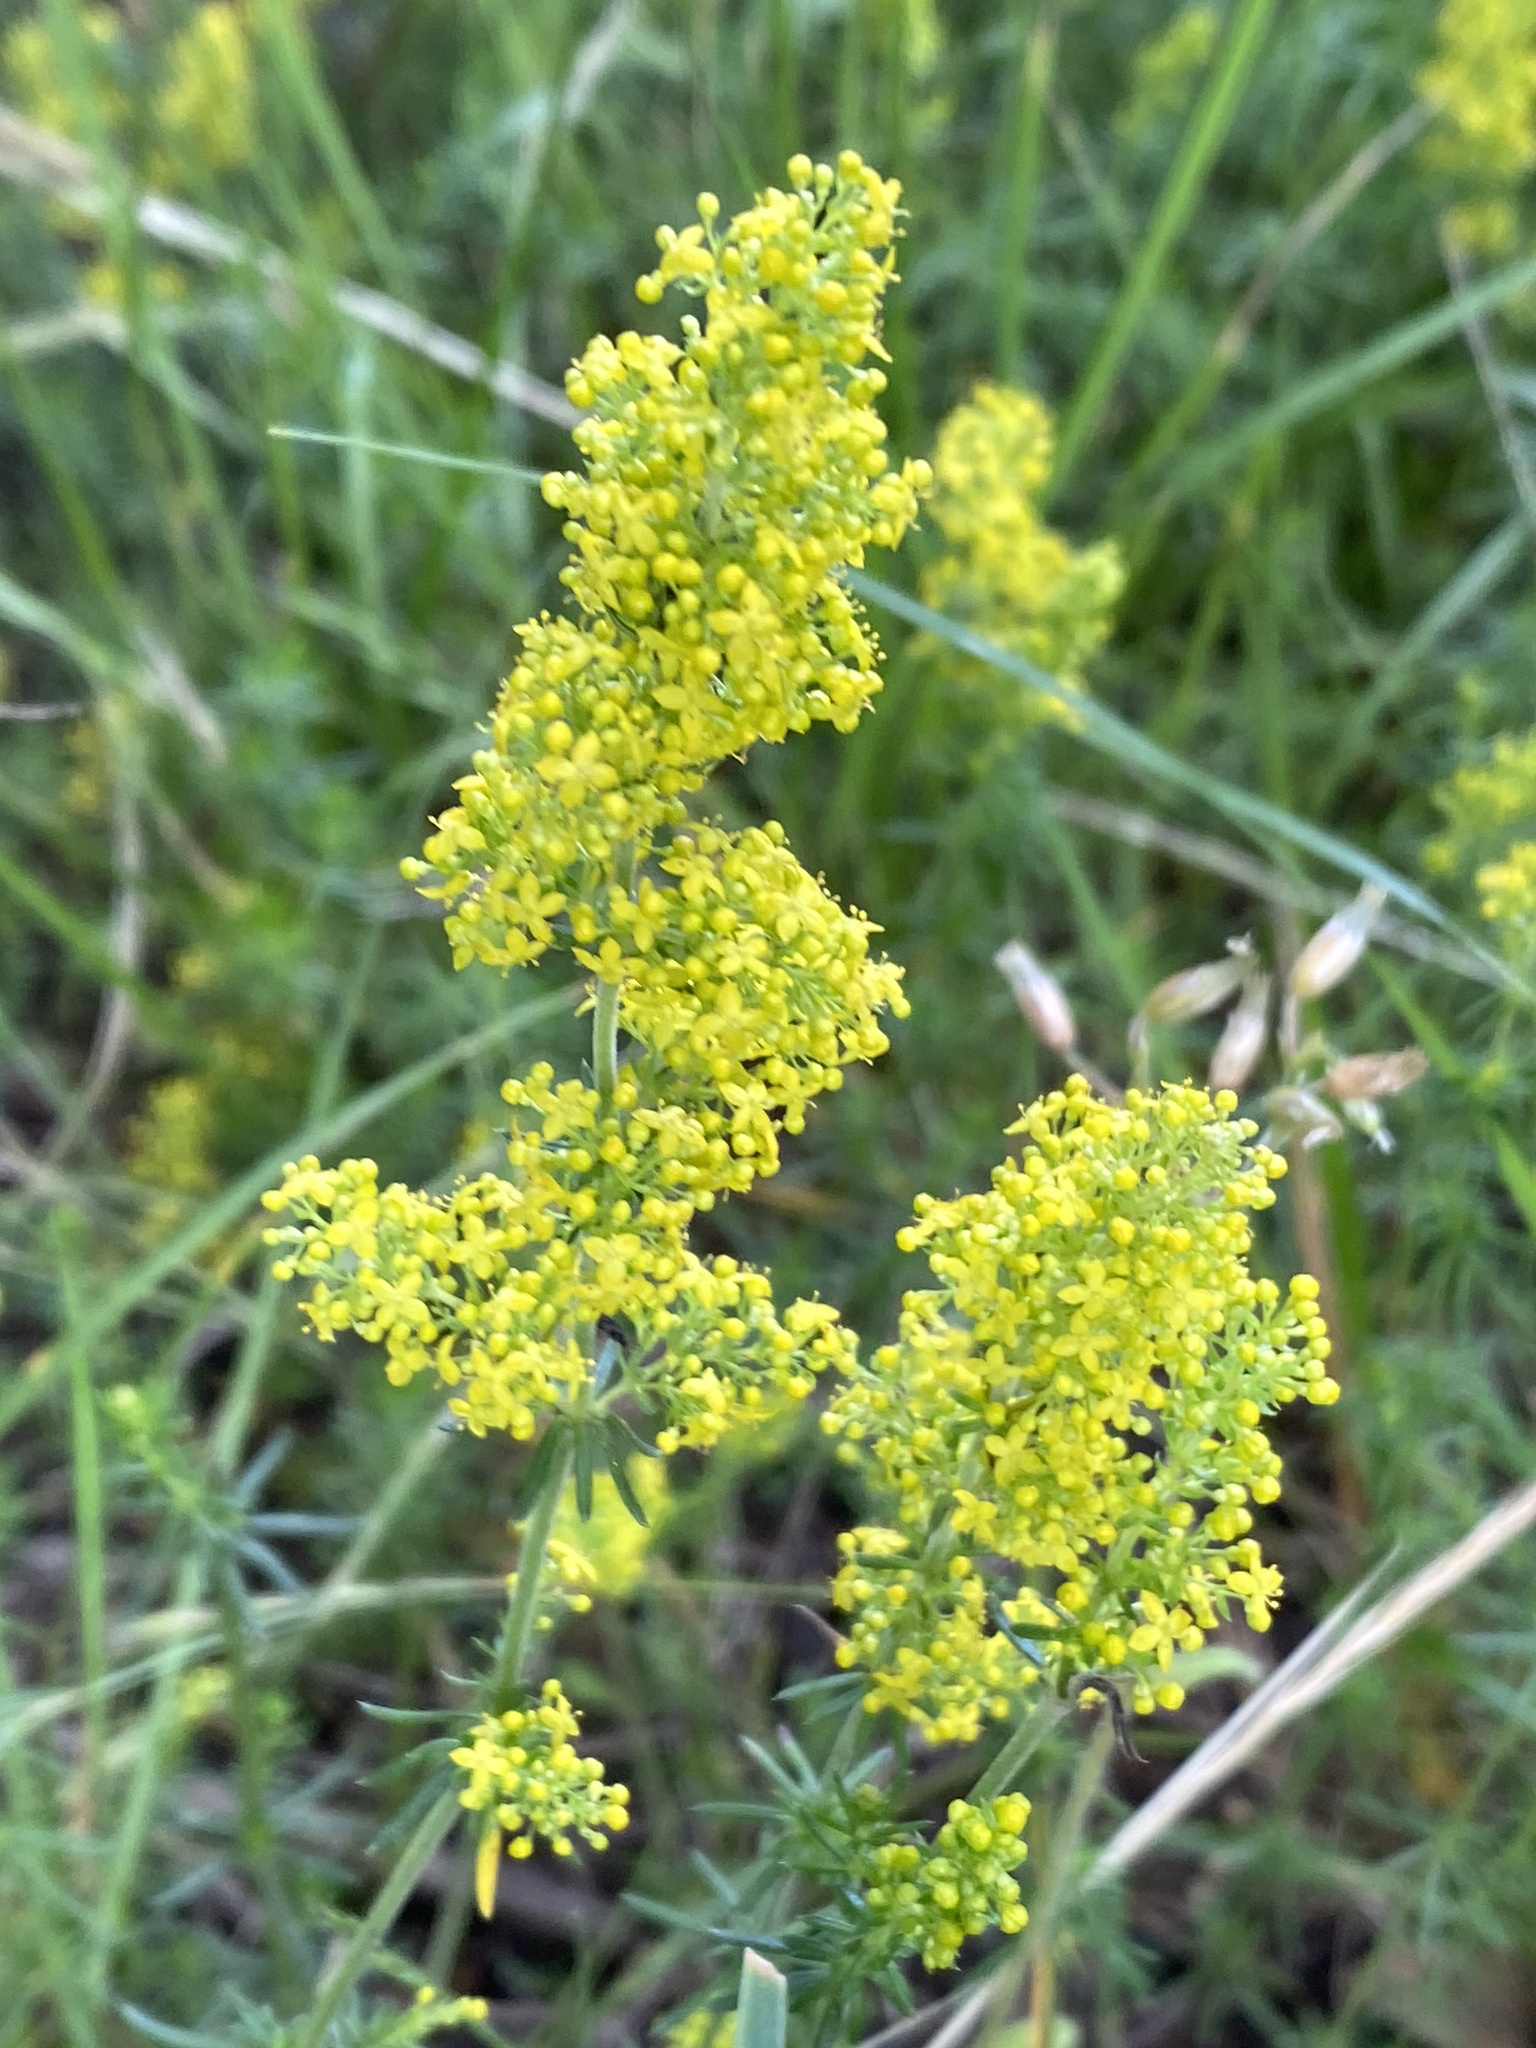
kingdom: Plantae
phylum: Tracheophyta
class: Magnoliopsida
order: Gentianales
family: Rubiaceae
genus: Galium
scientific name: Galium verum
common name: Lady's bedstraw
